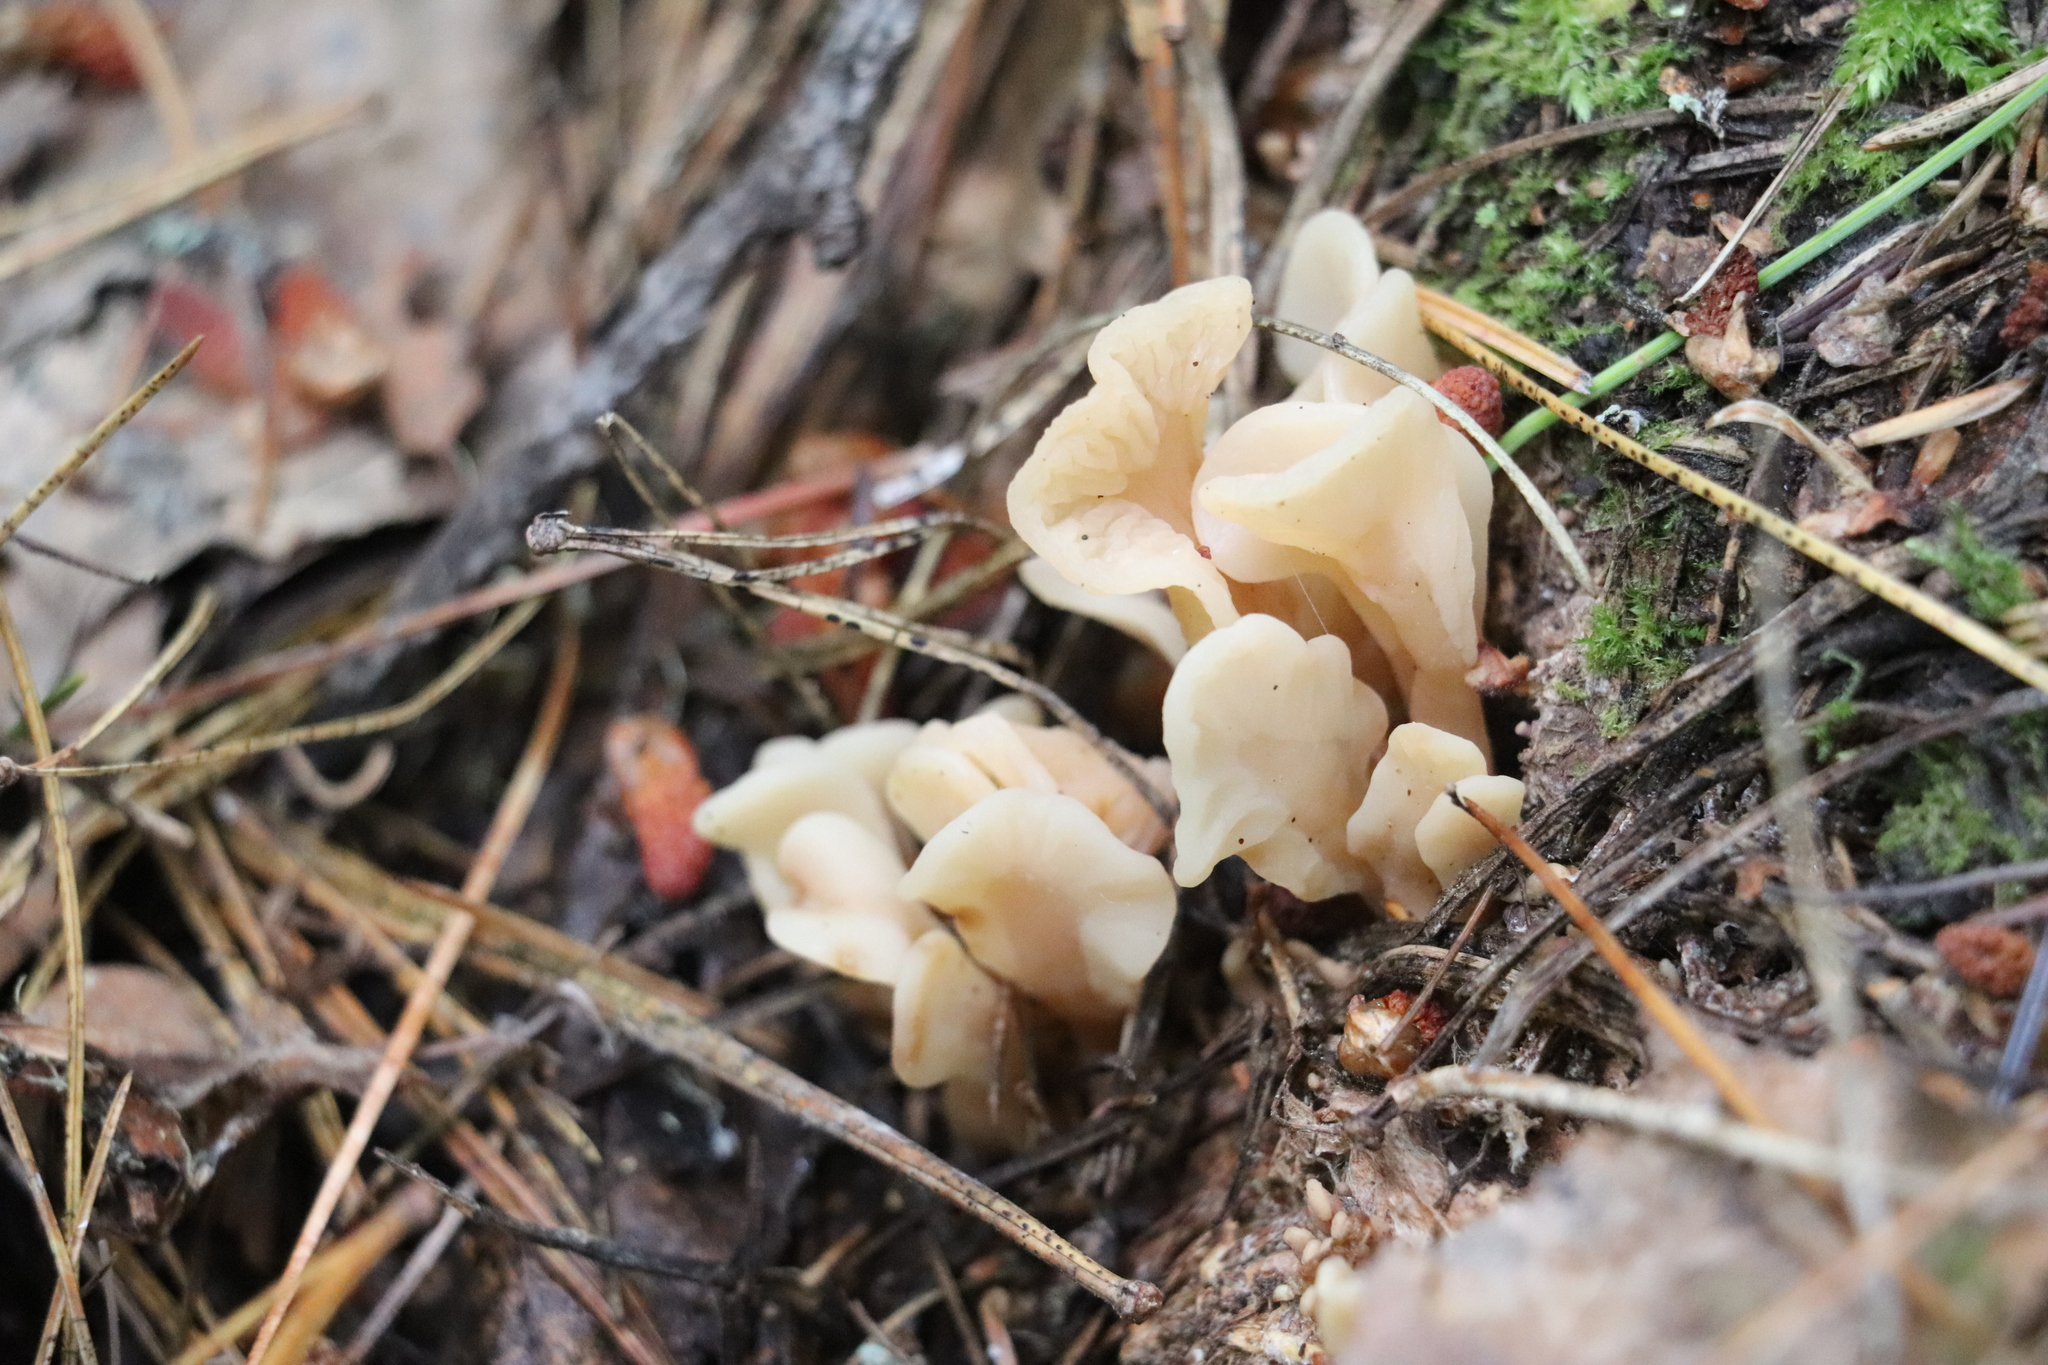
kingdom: Fungi
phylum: Ascomycota
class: Leotiomycetes
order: Rhytismatales
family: Cudoniaceae
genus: Spathularia
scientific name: Spathularia rufa
